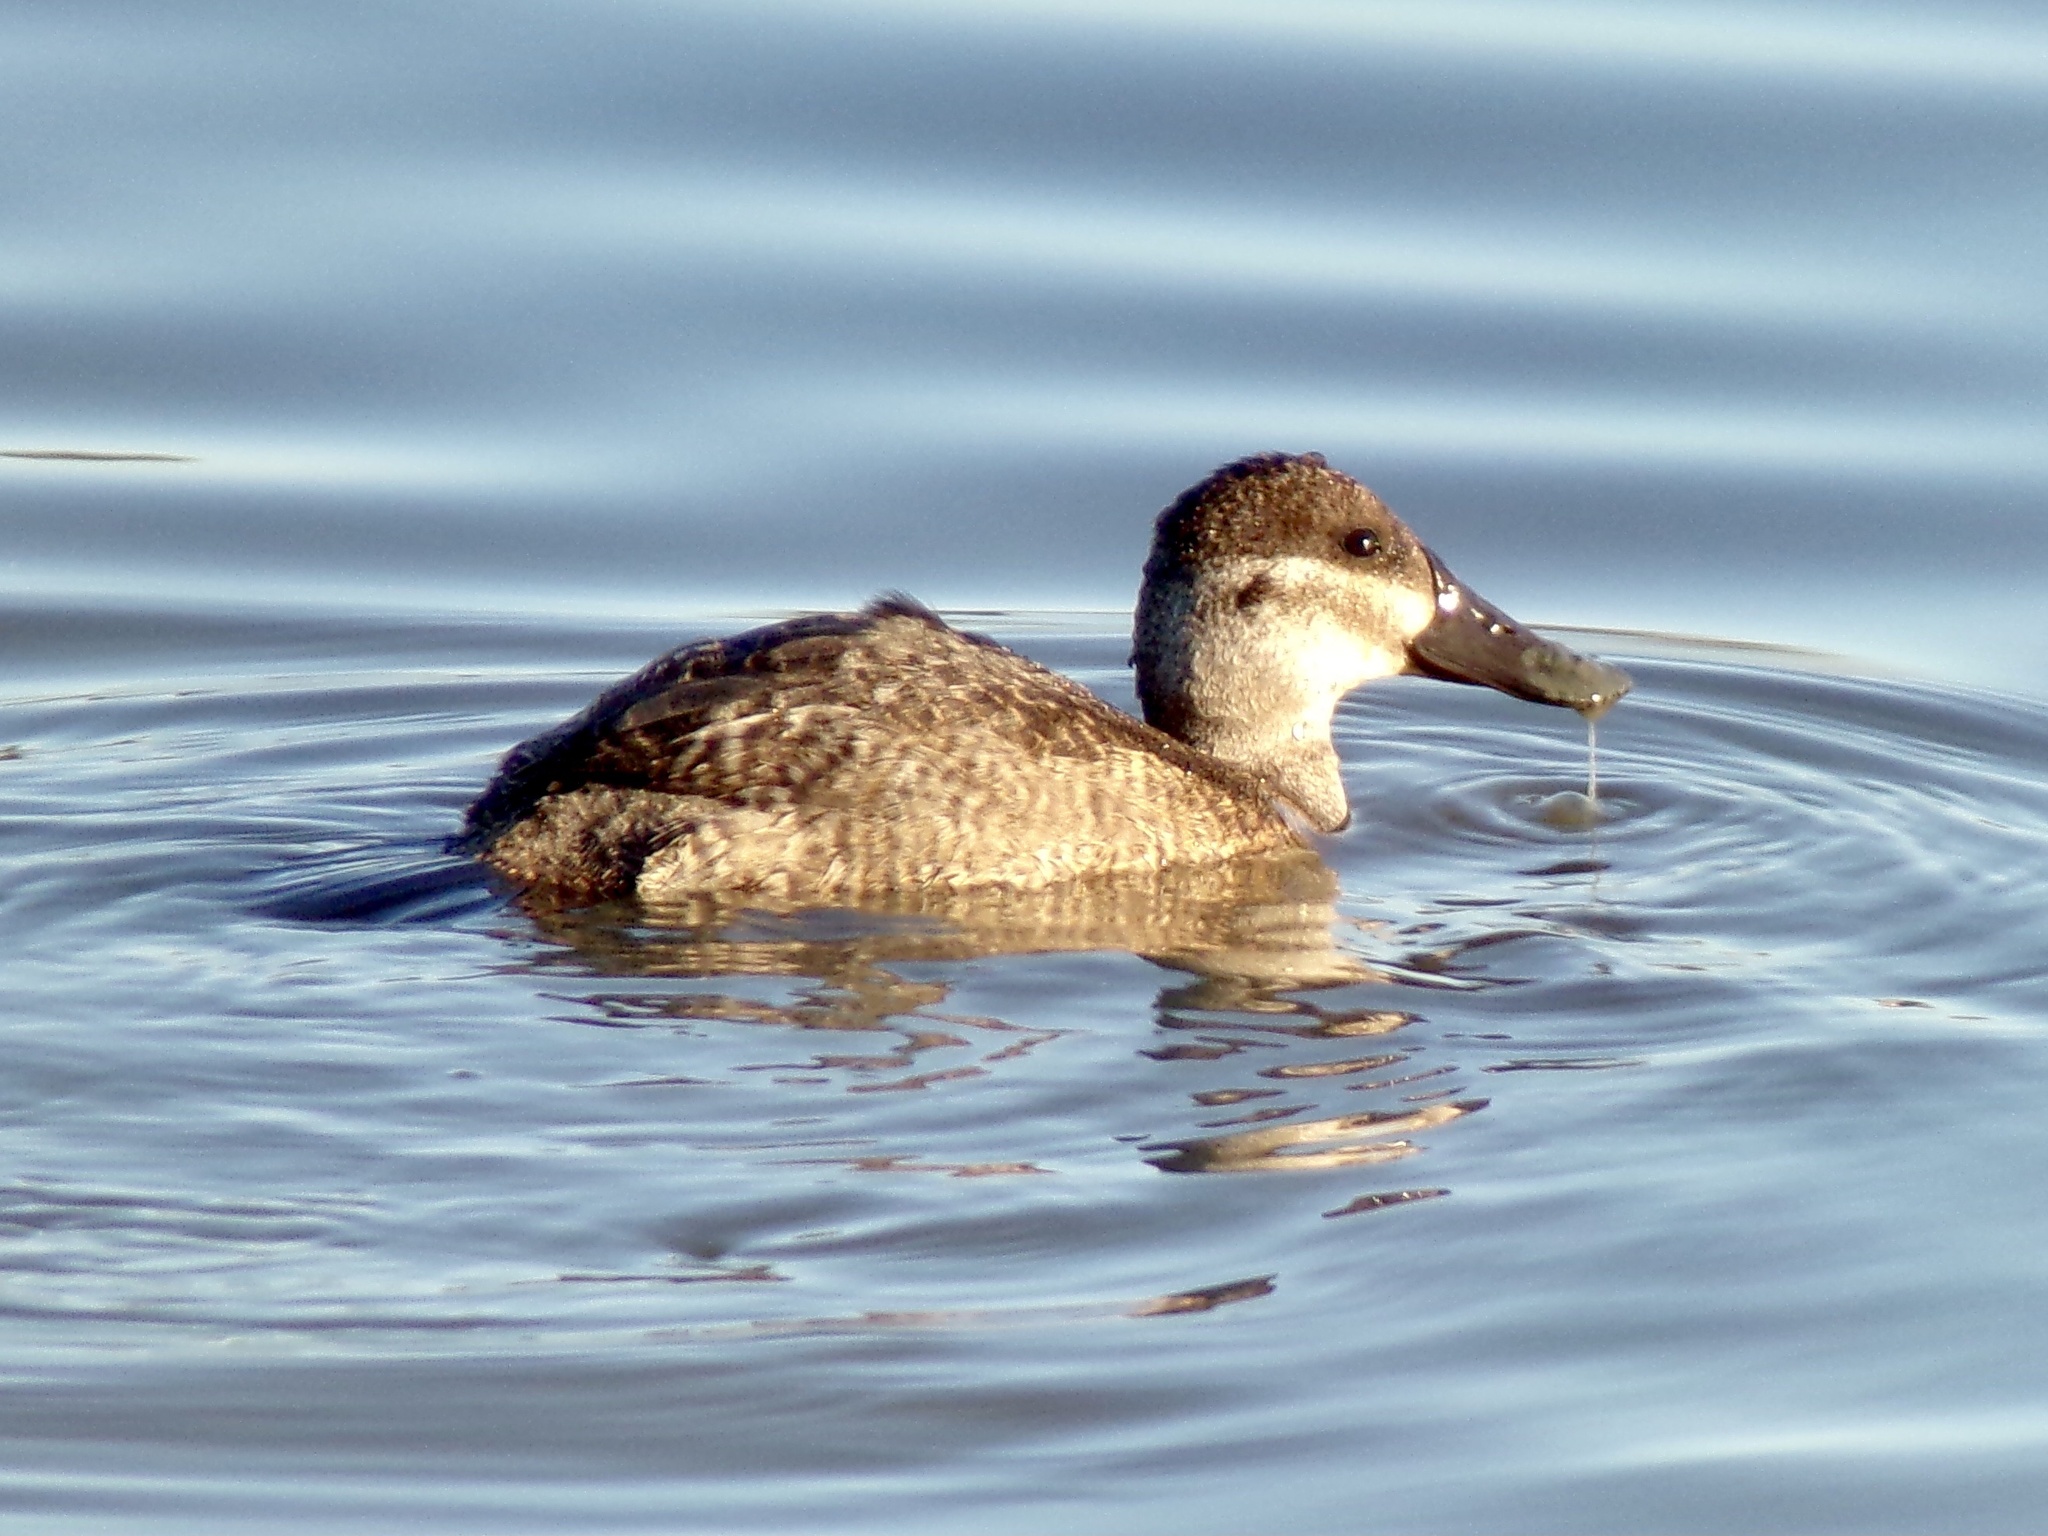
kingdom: Animalia
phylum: Chordata
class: Aves
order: Anseriformes
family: Anatidae
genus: Oxyura
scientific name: Oxyura jamaicensis
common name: Ruddy duck
